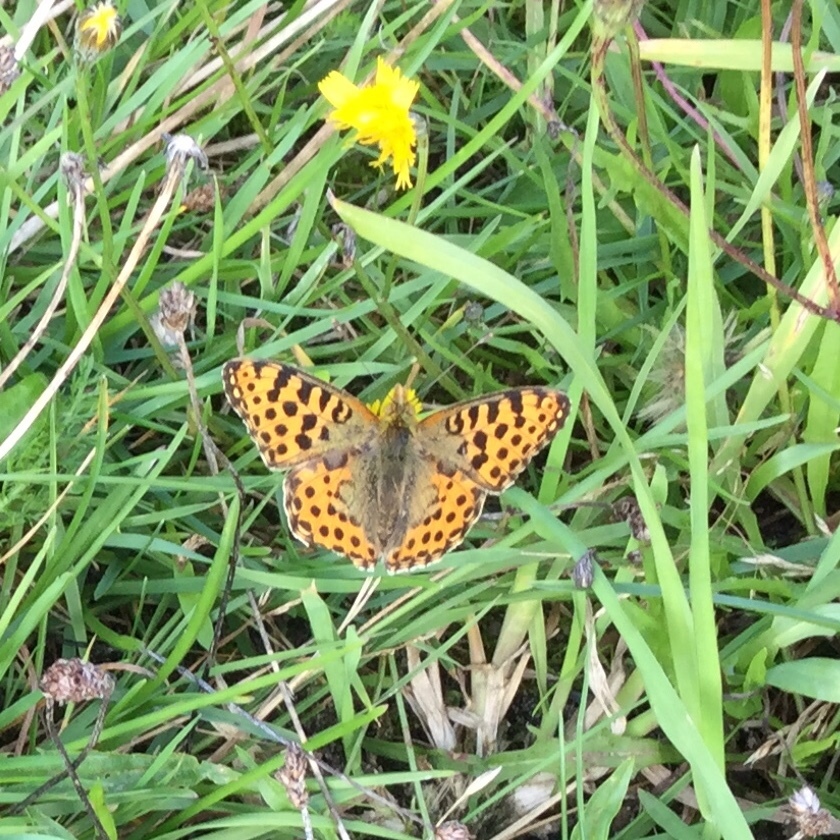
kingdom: Animalia
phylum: Arthropoda
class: Insecta
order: Lepidoptera
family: Nymphalidae
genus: Issoria
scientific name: Issoria lathonia
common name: Queen of spain fritillary
